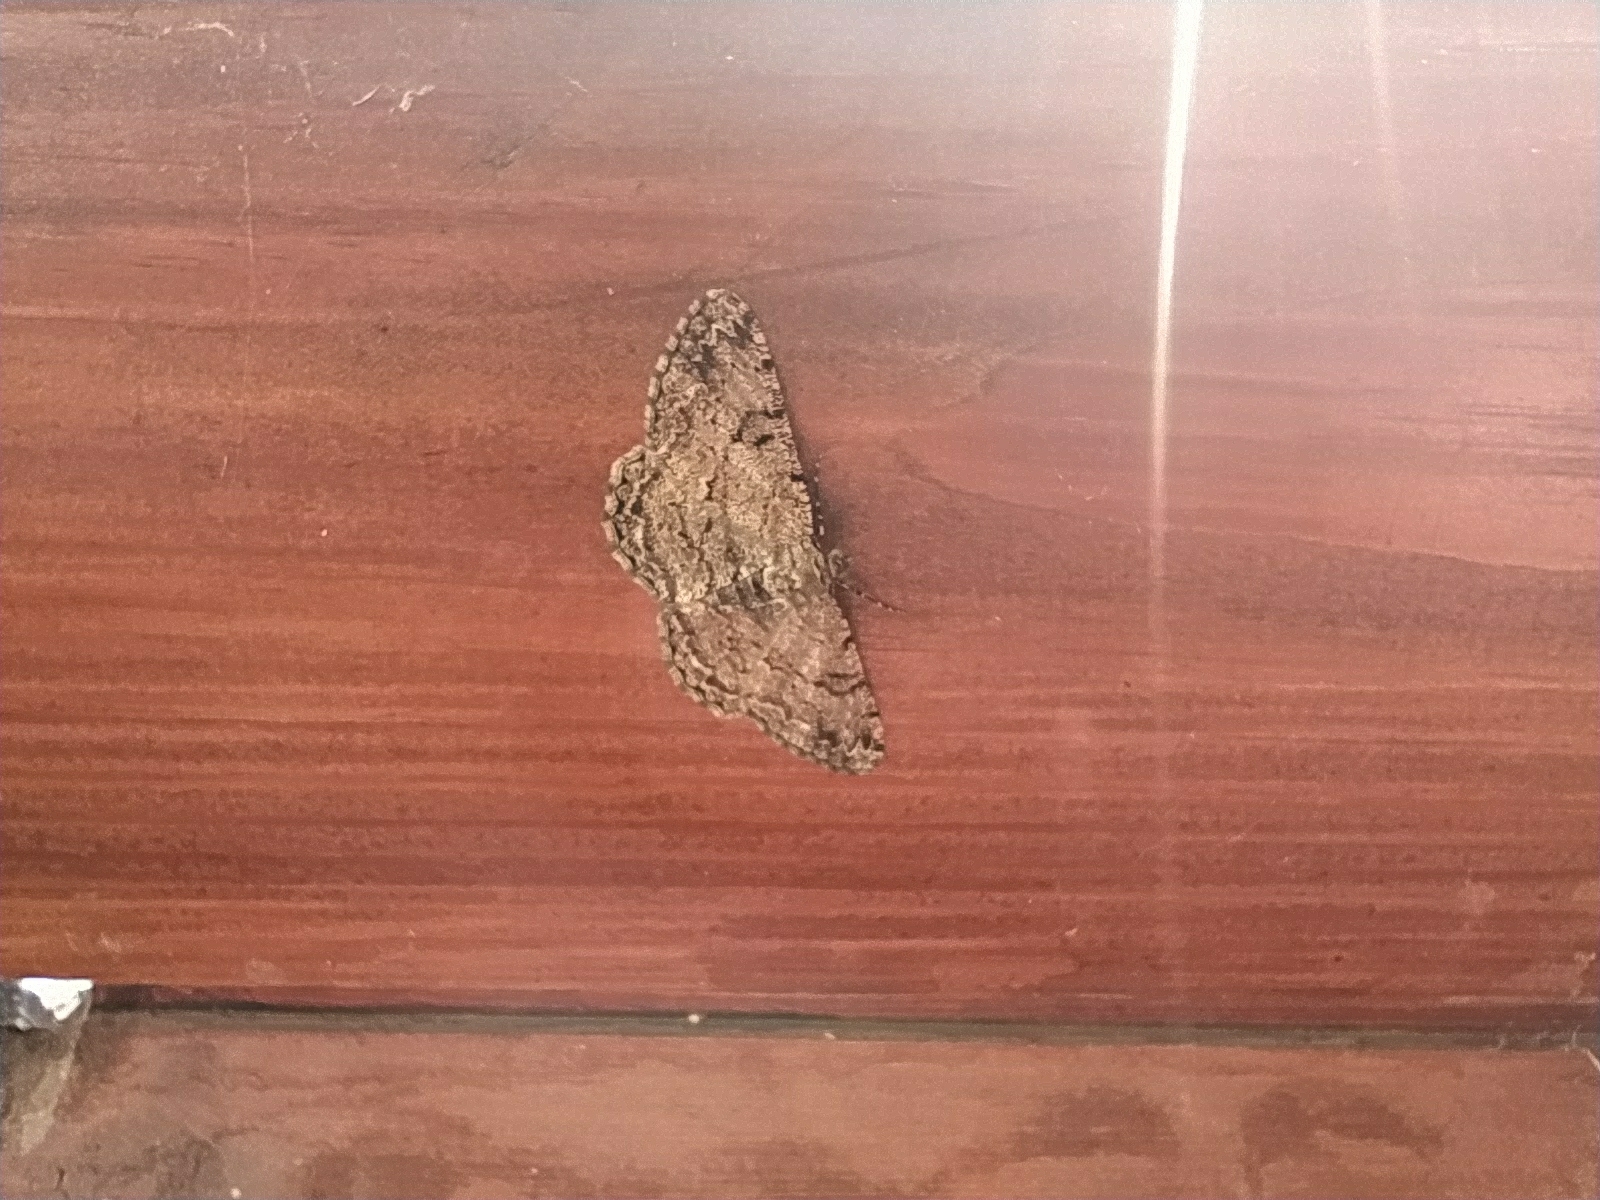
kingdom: Animalia
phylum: Arthropoda
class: Insecta
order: Lepidoptera
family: Geometridae
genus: Peribatodes
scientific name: Peribatodes rhomboidaria
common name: Willow beauty
